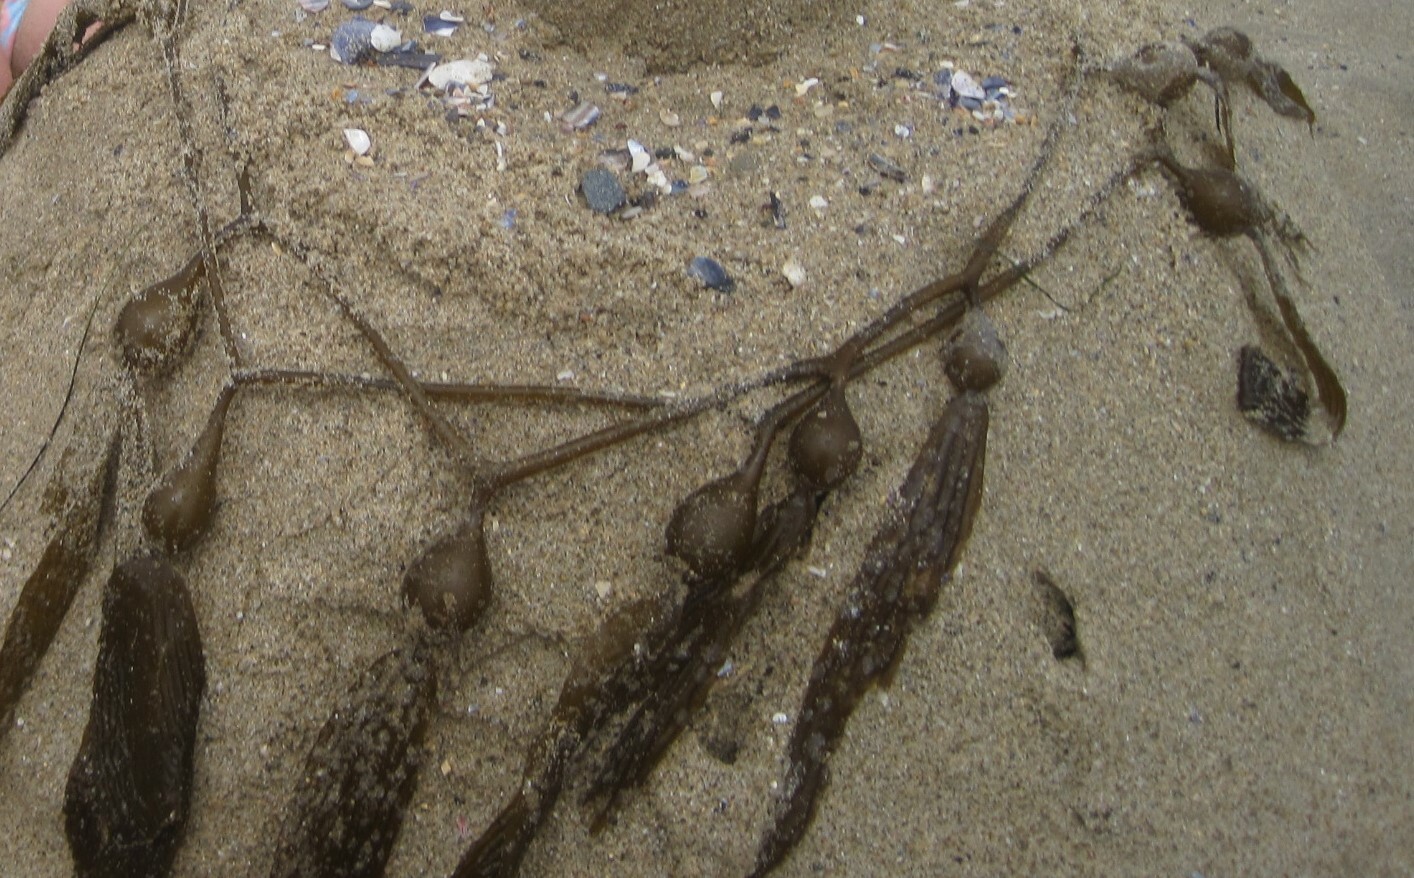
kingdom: Chromista
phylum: Ochrophyta
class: Phaeophyceae
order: Laminariales
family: Laminariaceae
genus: Macrocystis
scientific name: Macrocystis pyrifera
